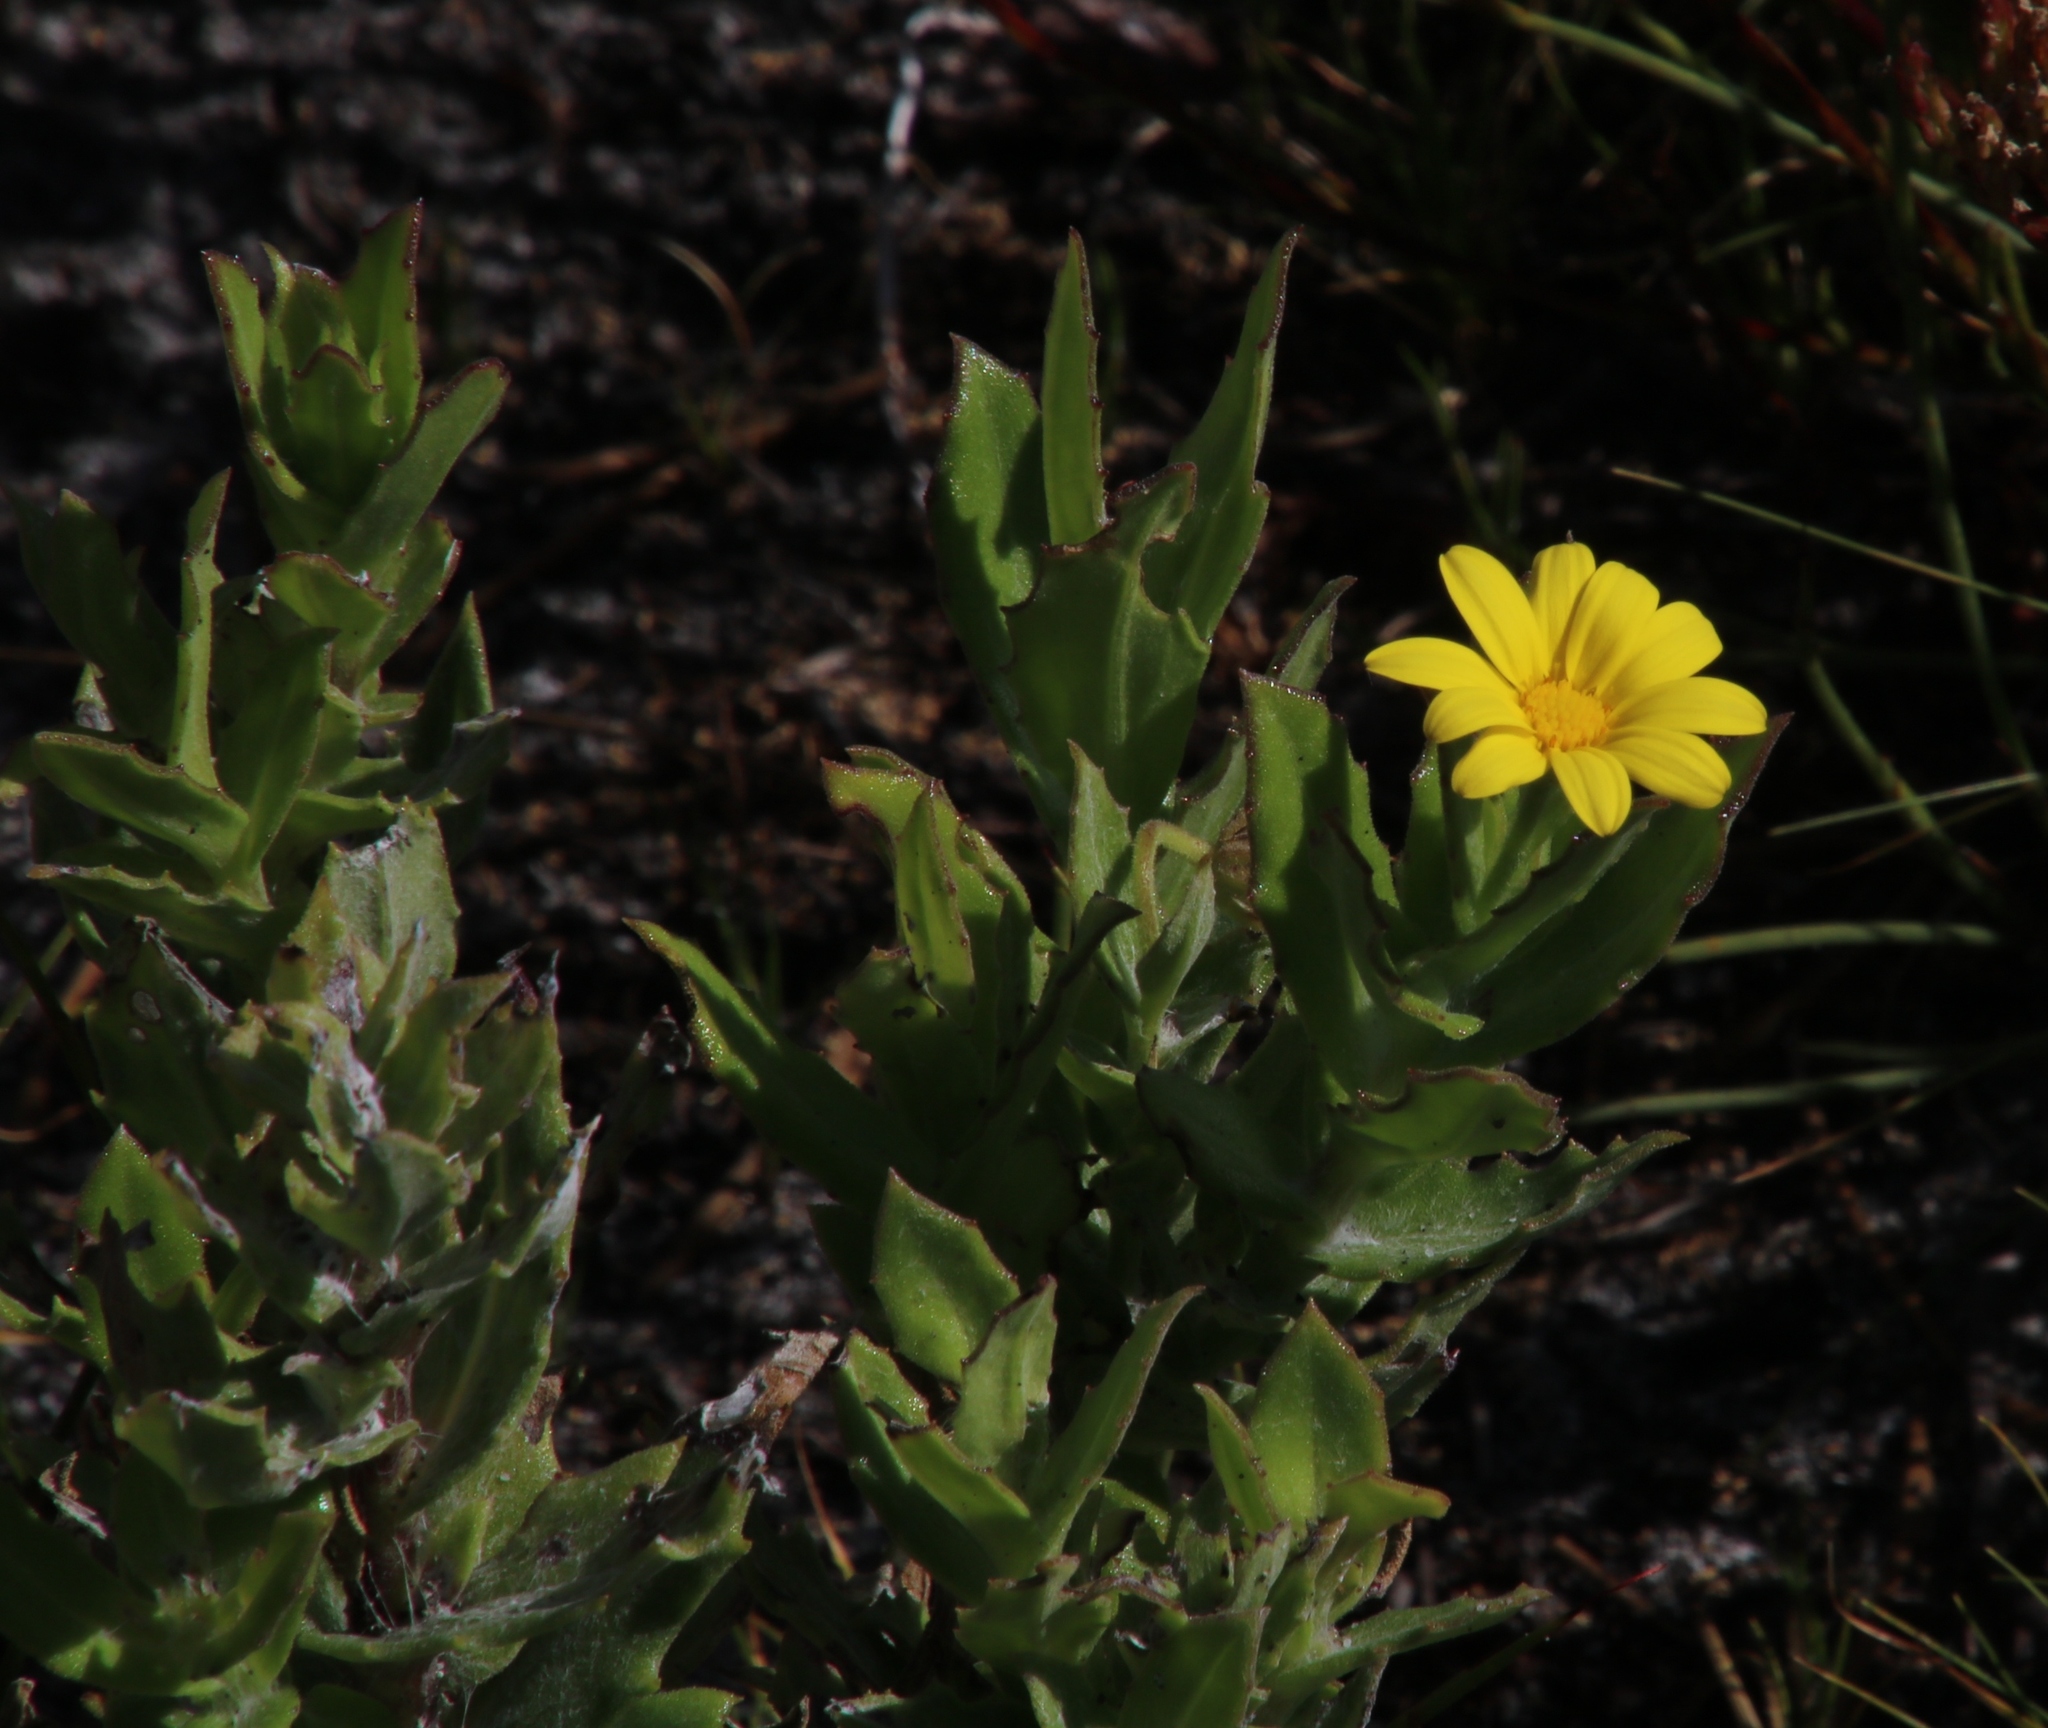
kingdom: Plantae
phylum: Tracheophyta
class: Magnoliopsida
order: Asterales
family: Asteraceae
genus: Osteospermum
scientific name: Osteospermum ilicifolium
